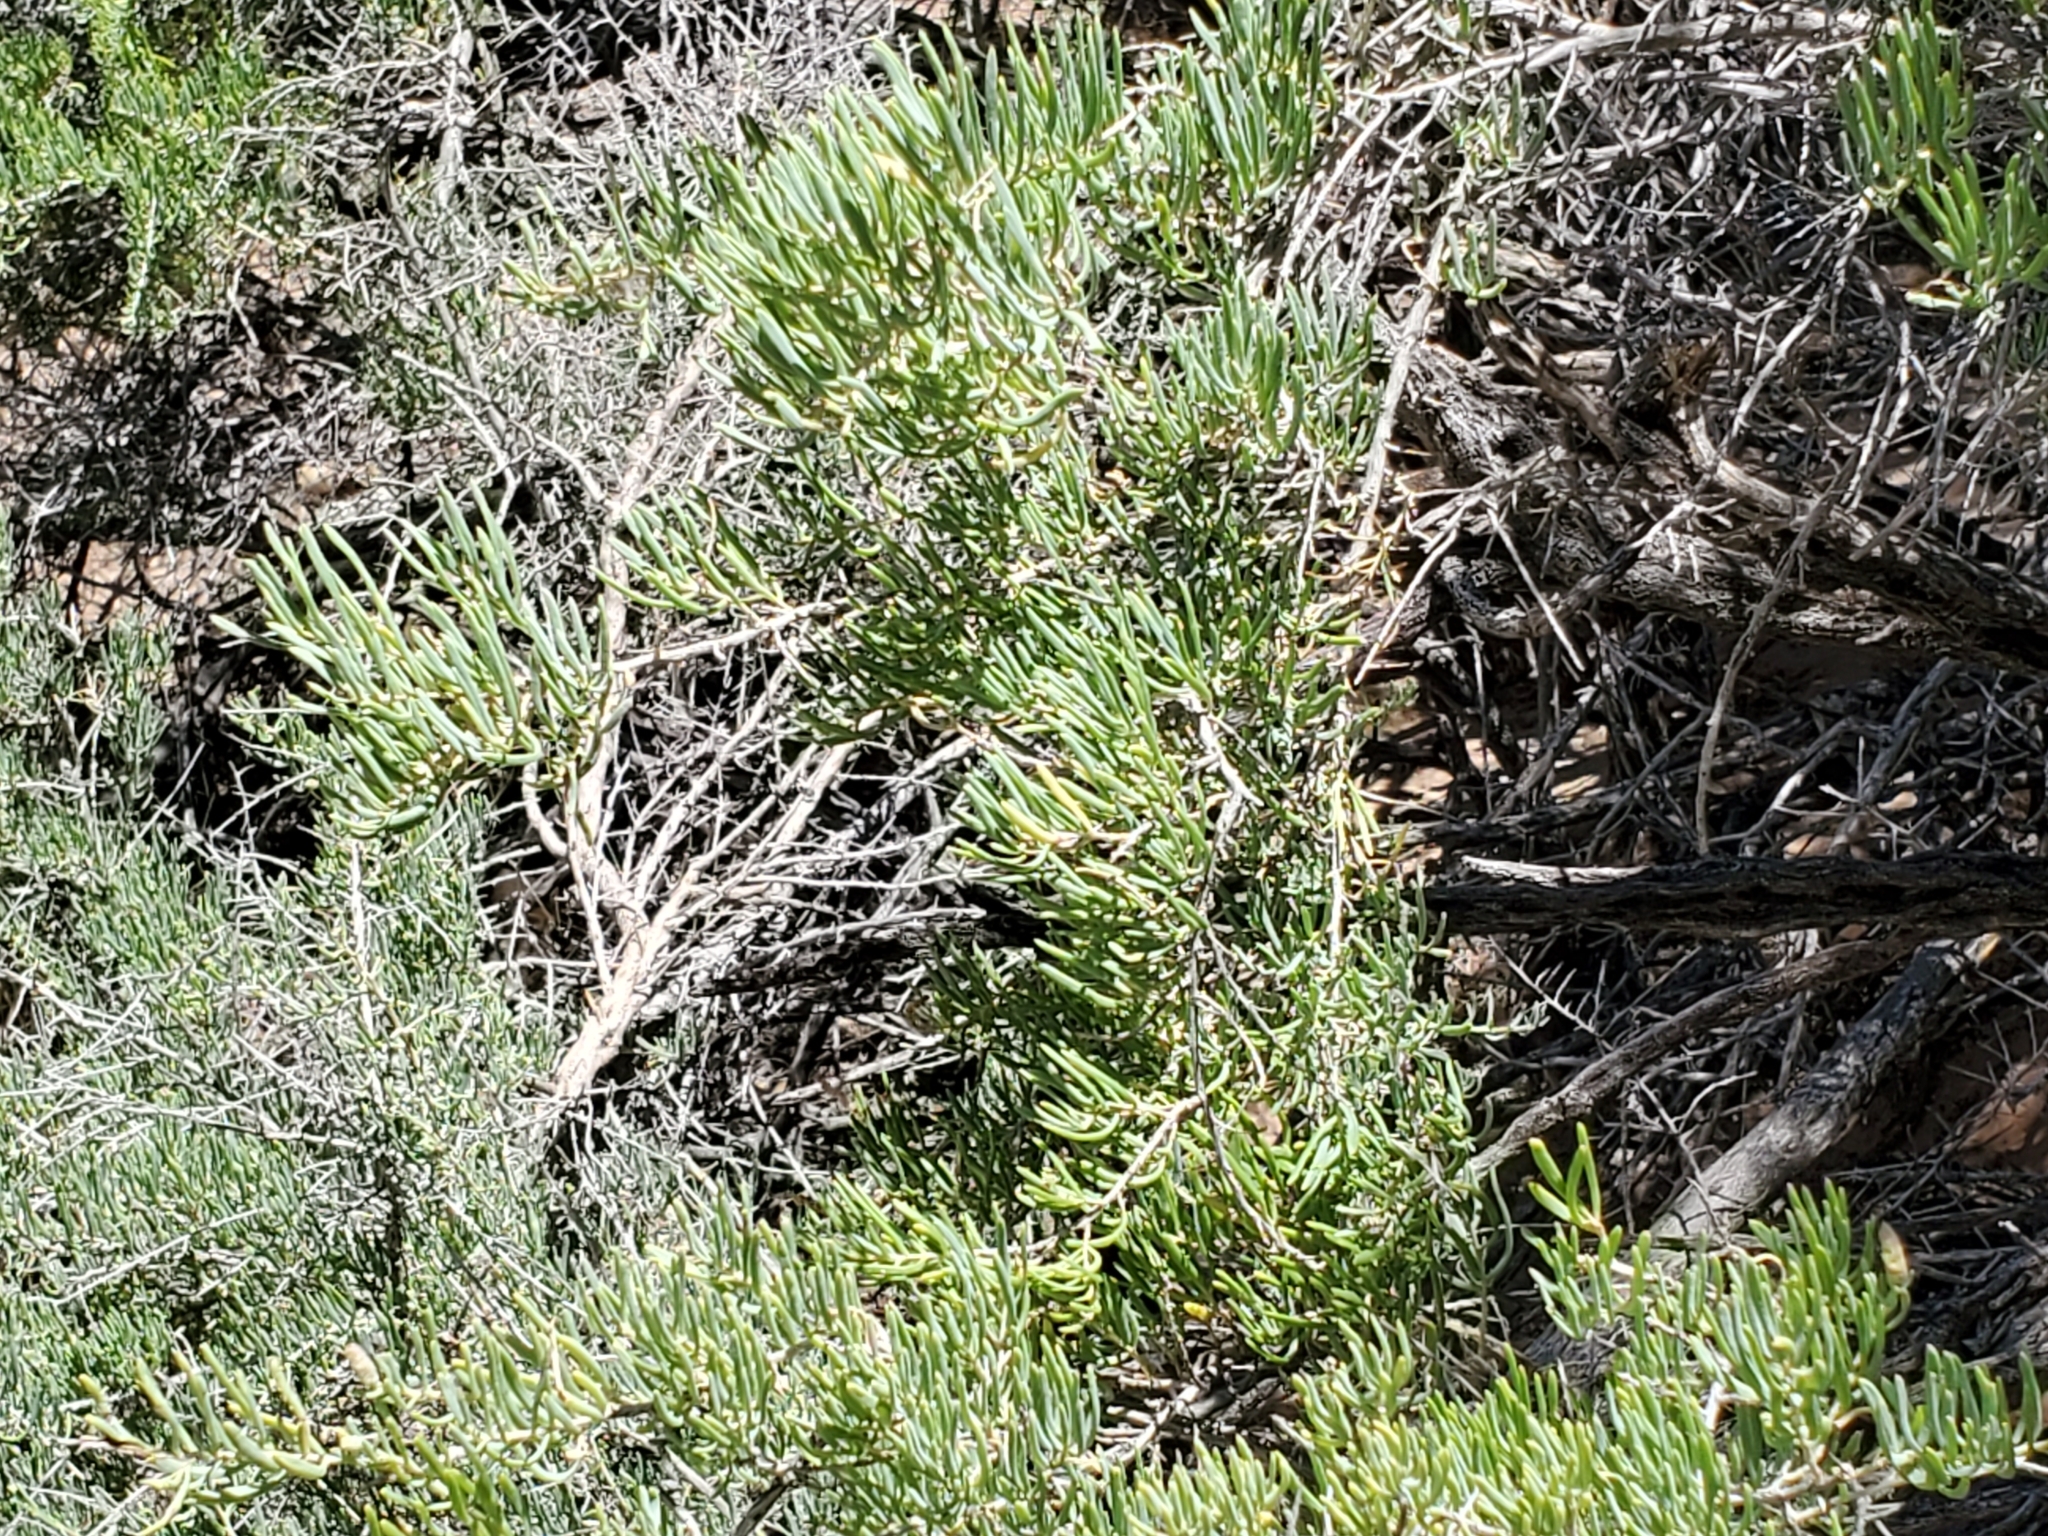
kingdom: Plantae
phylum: Tracheophyta
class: Magnoliopsida
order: Caryophyllales
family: Sarcobataceae
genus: Sarcobatus
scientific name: Sarcobatus vermiculatus
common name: Greasewood
